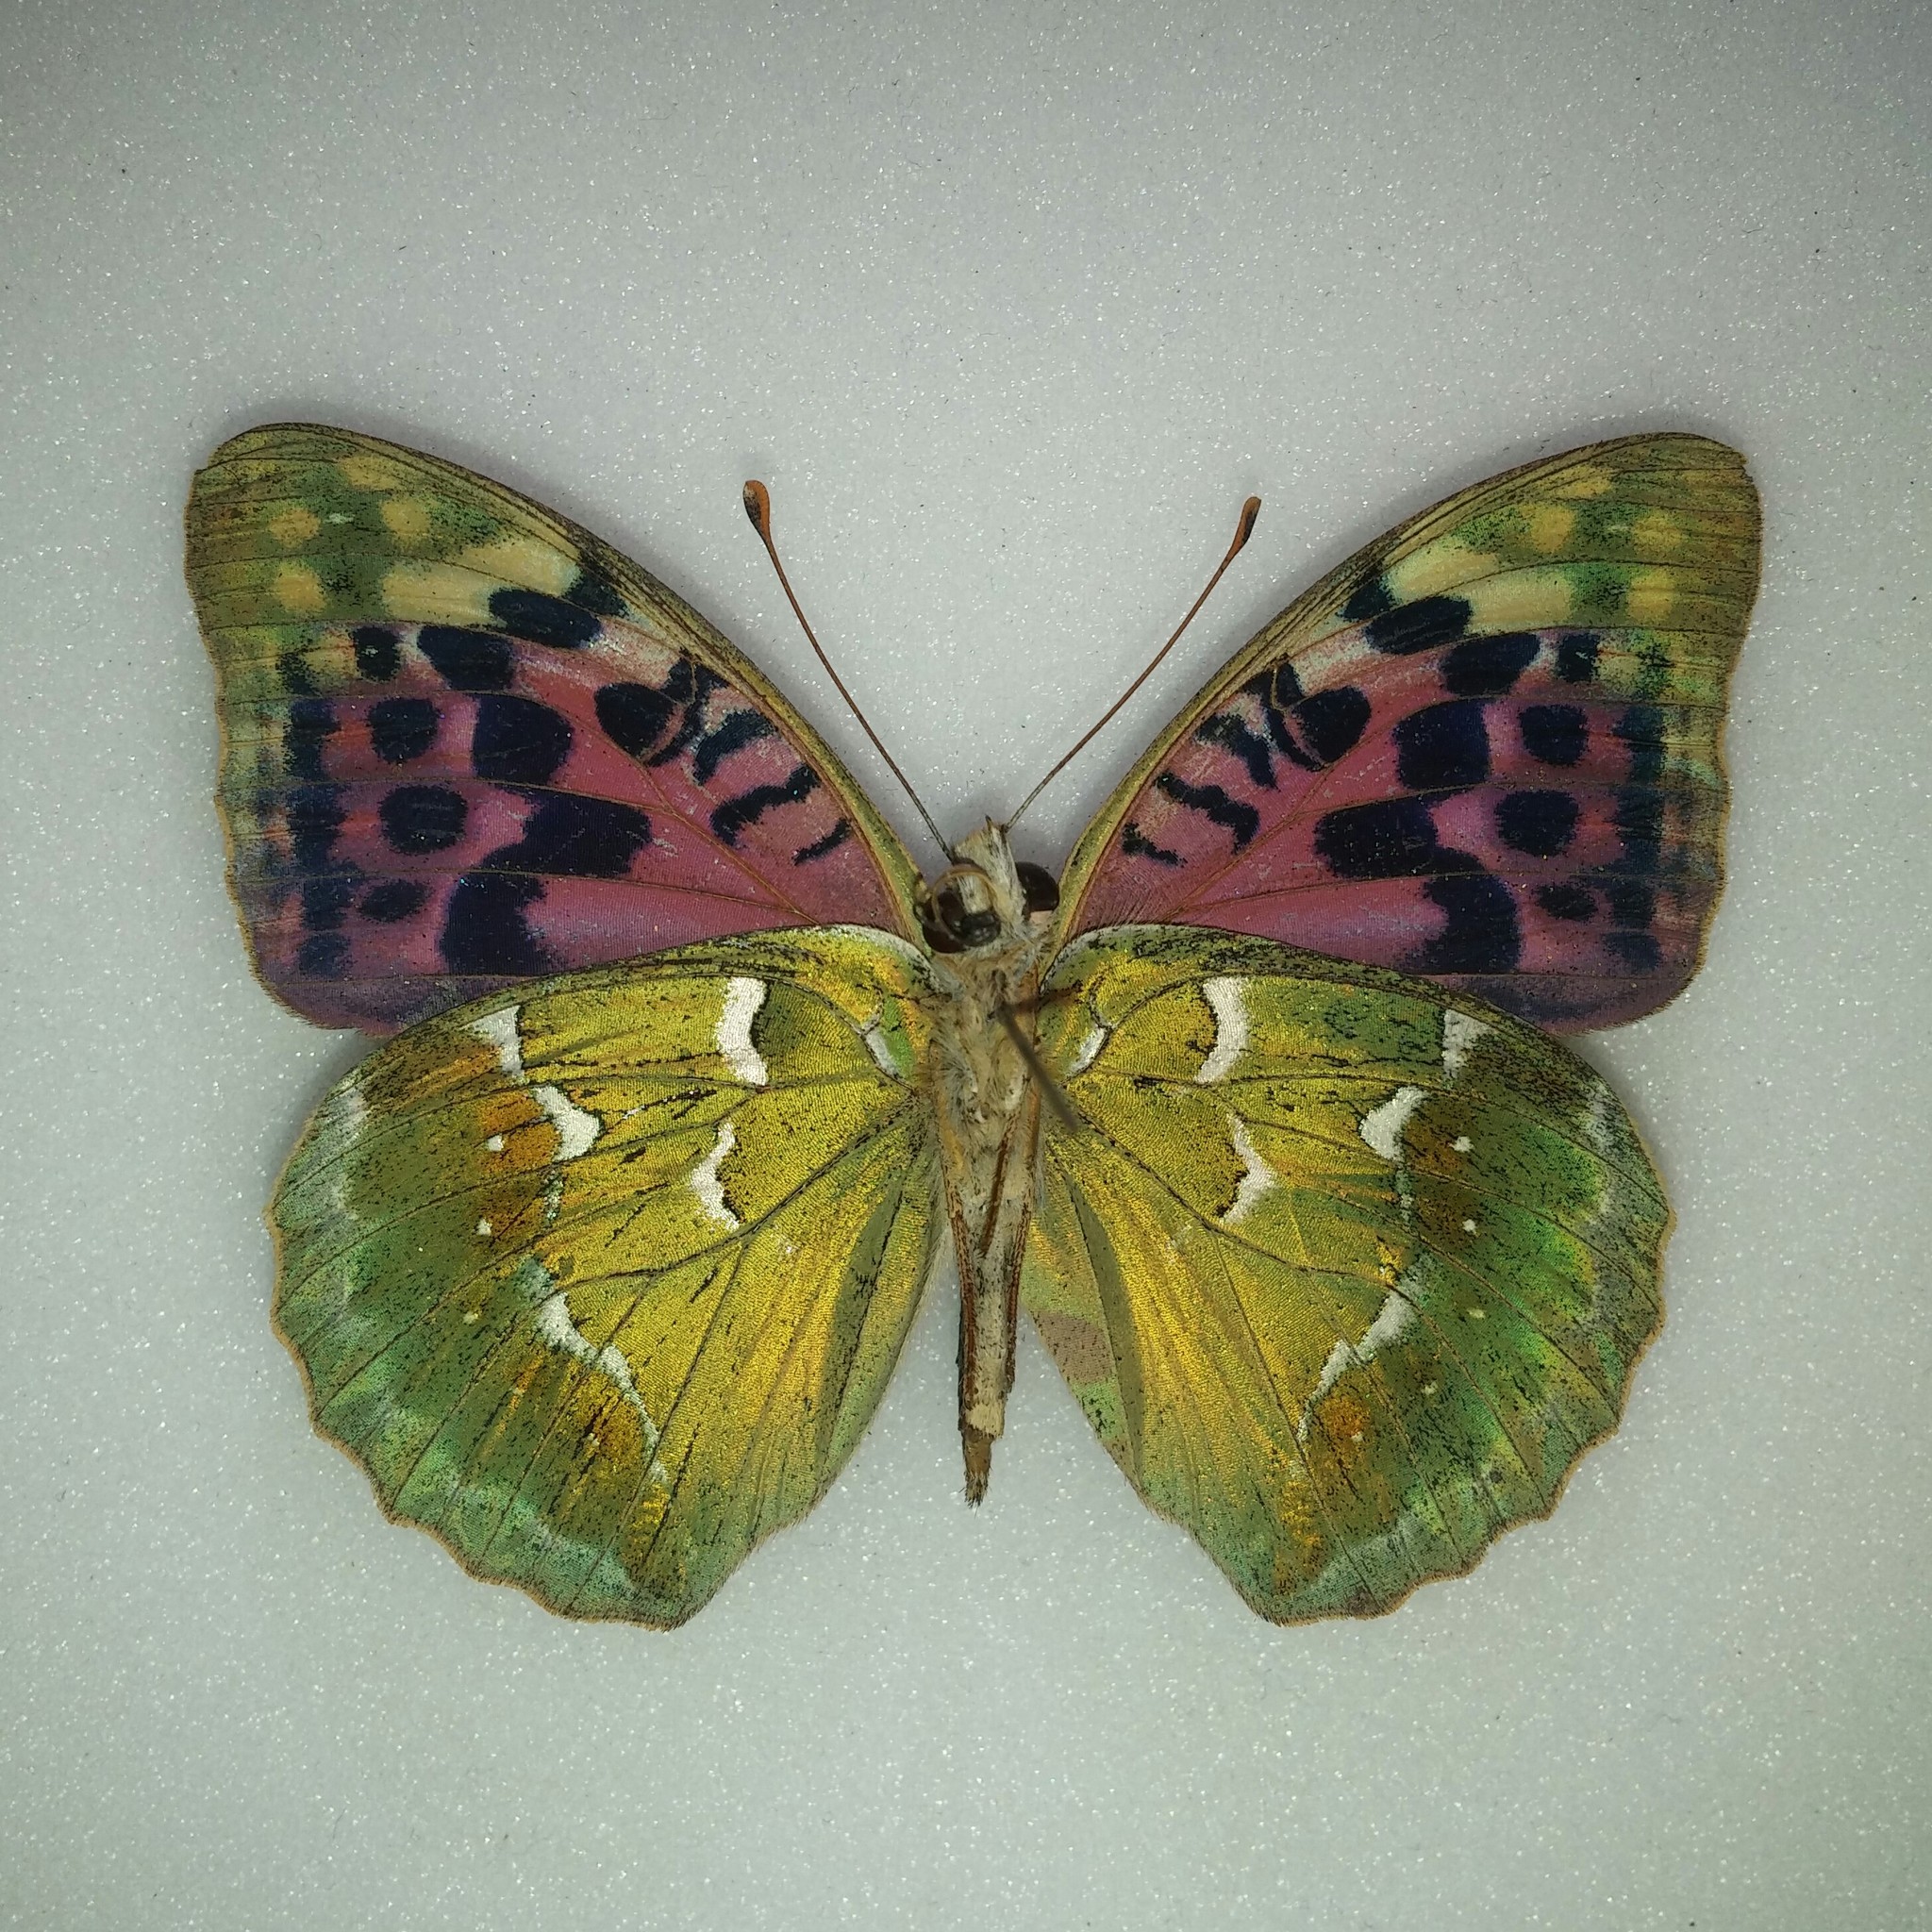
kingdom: Animalia
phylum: Arthropoda
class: Insecta
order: Lepidoptera
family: Nymphalidae
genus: Damora
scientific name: Damora pandora
